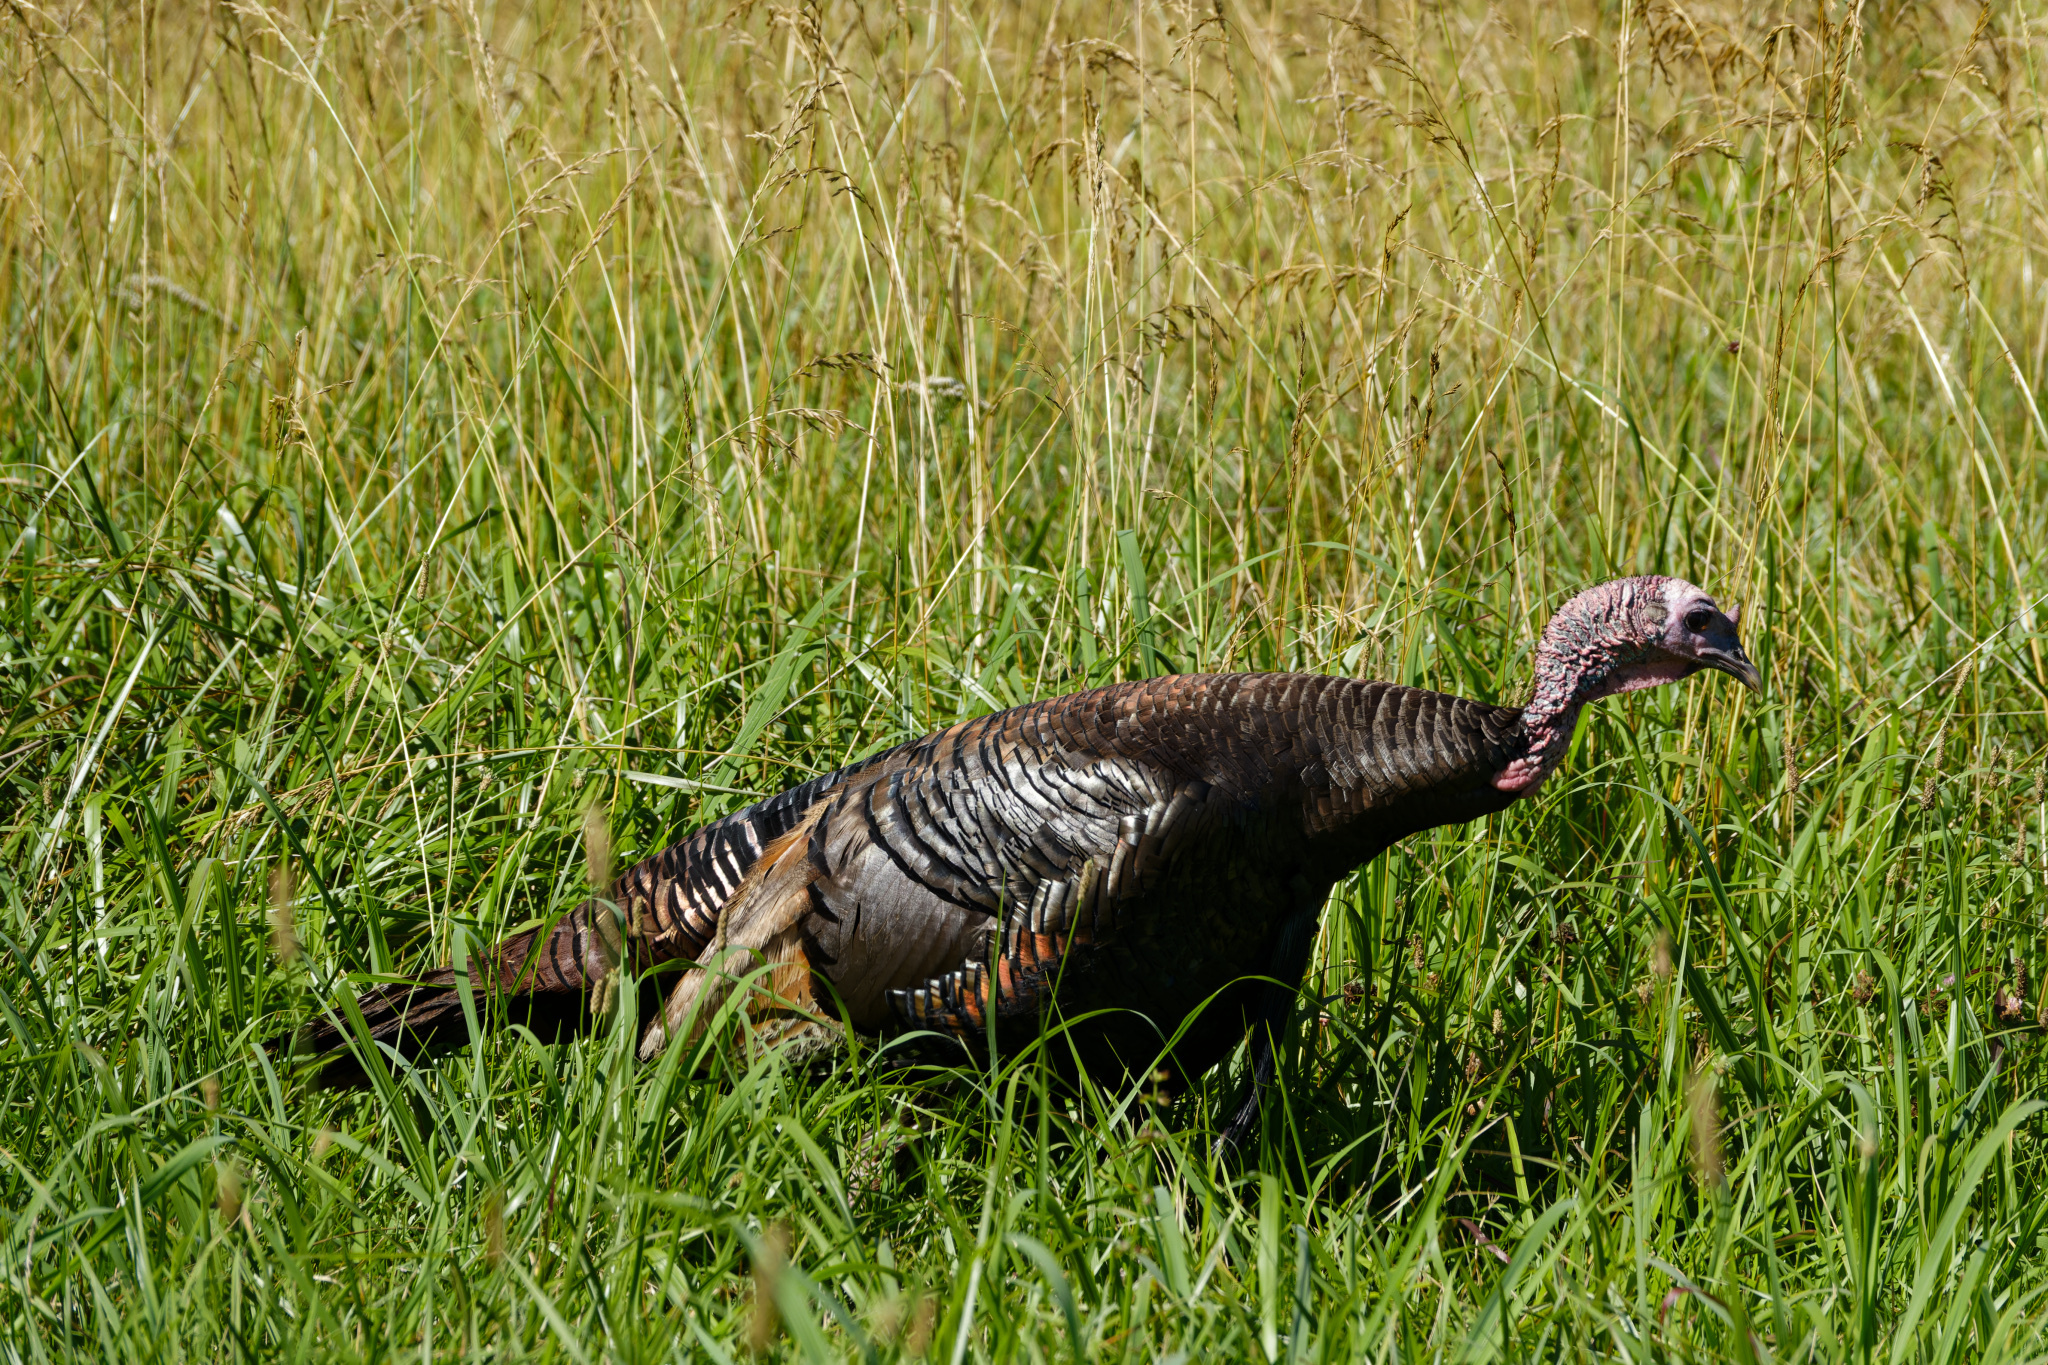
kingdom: Animalia
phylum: Chordata
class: Aves
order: Galliformes
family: Phasianidae
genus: Meleagris
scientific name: Meleagris gallopavo
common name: Wild turkey
